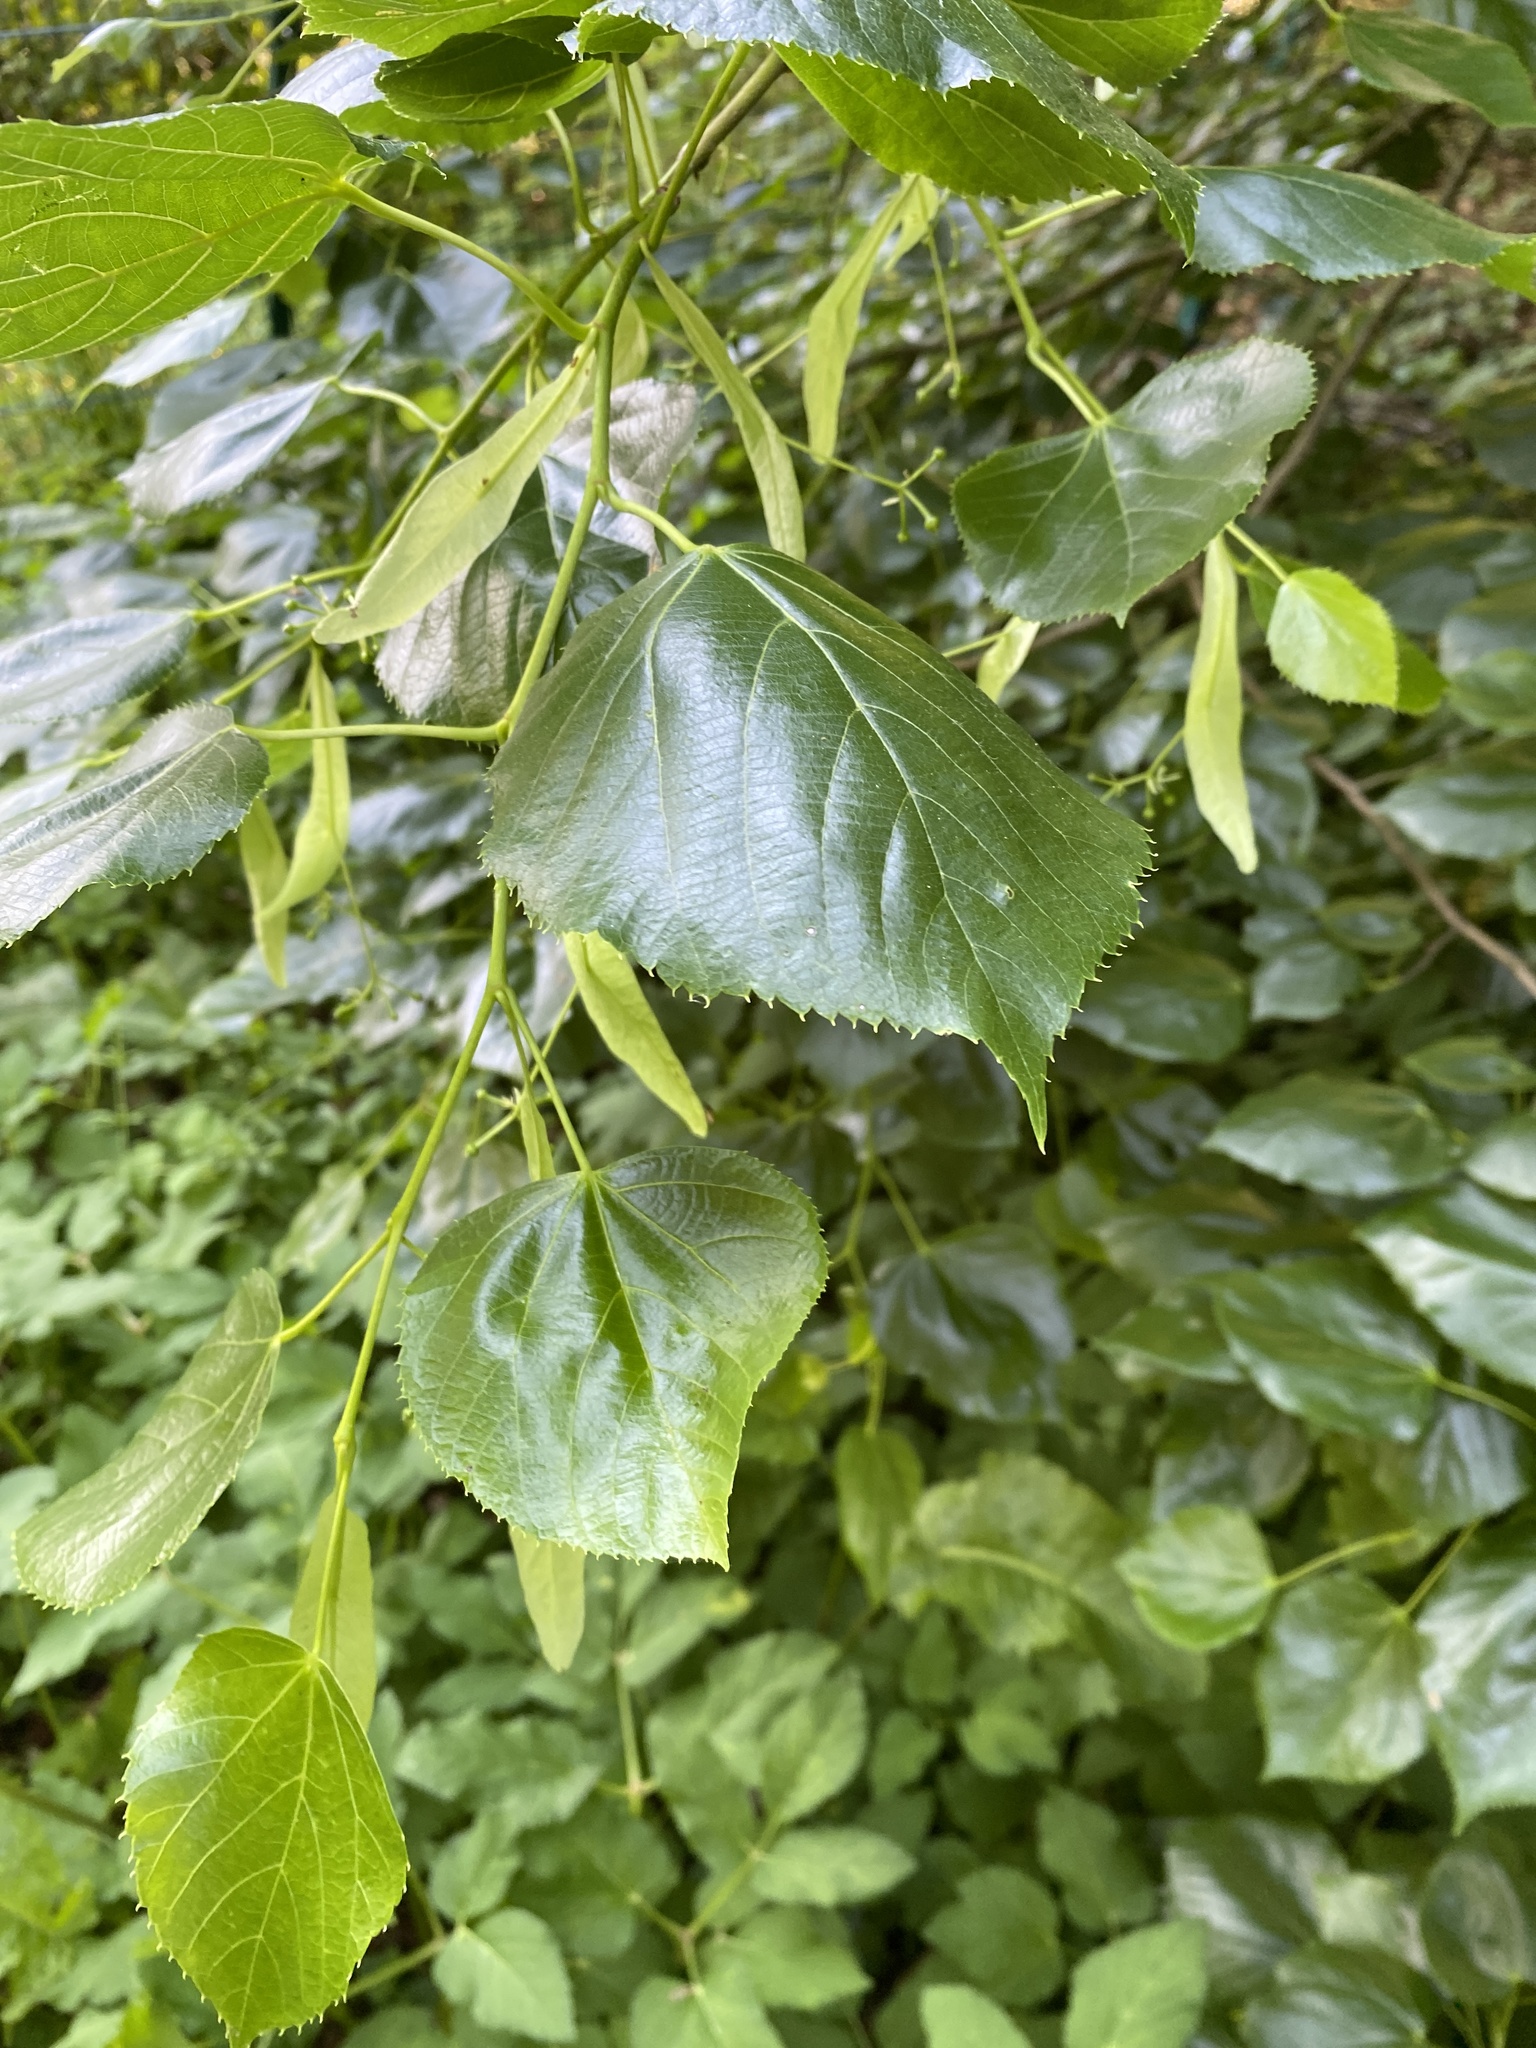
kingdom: Plantae
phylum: Tracheophyta
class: Magnoliopsida
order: Malvales
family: Malvaceae
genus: Tilia
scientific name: Tilia platyphyllos
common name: Large-leaved lime
